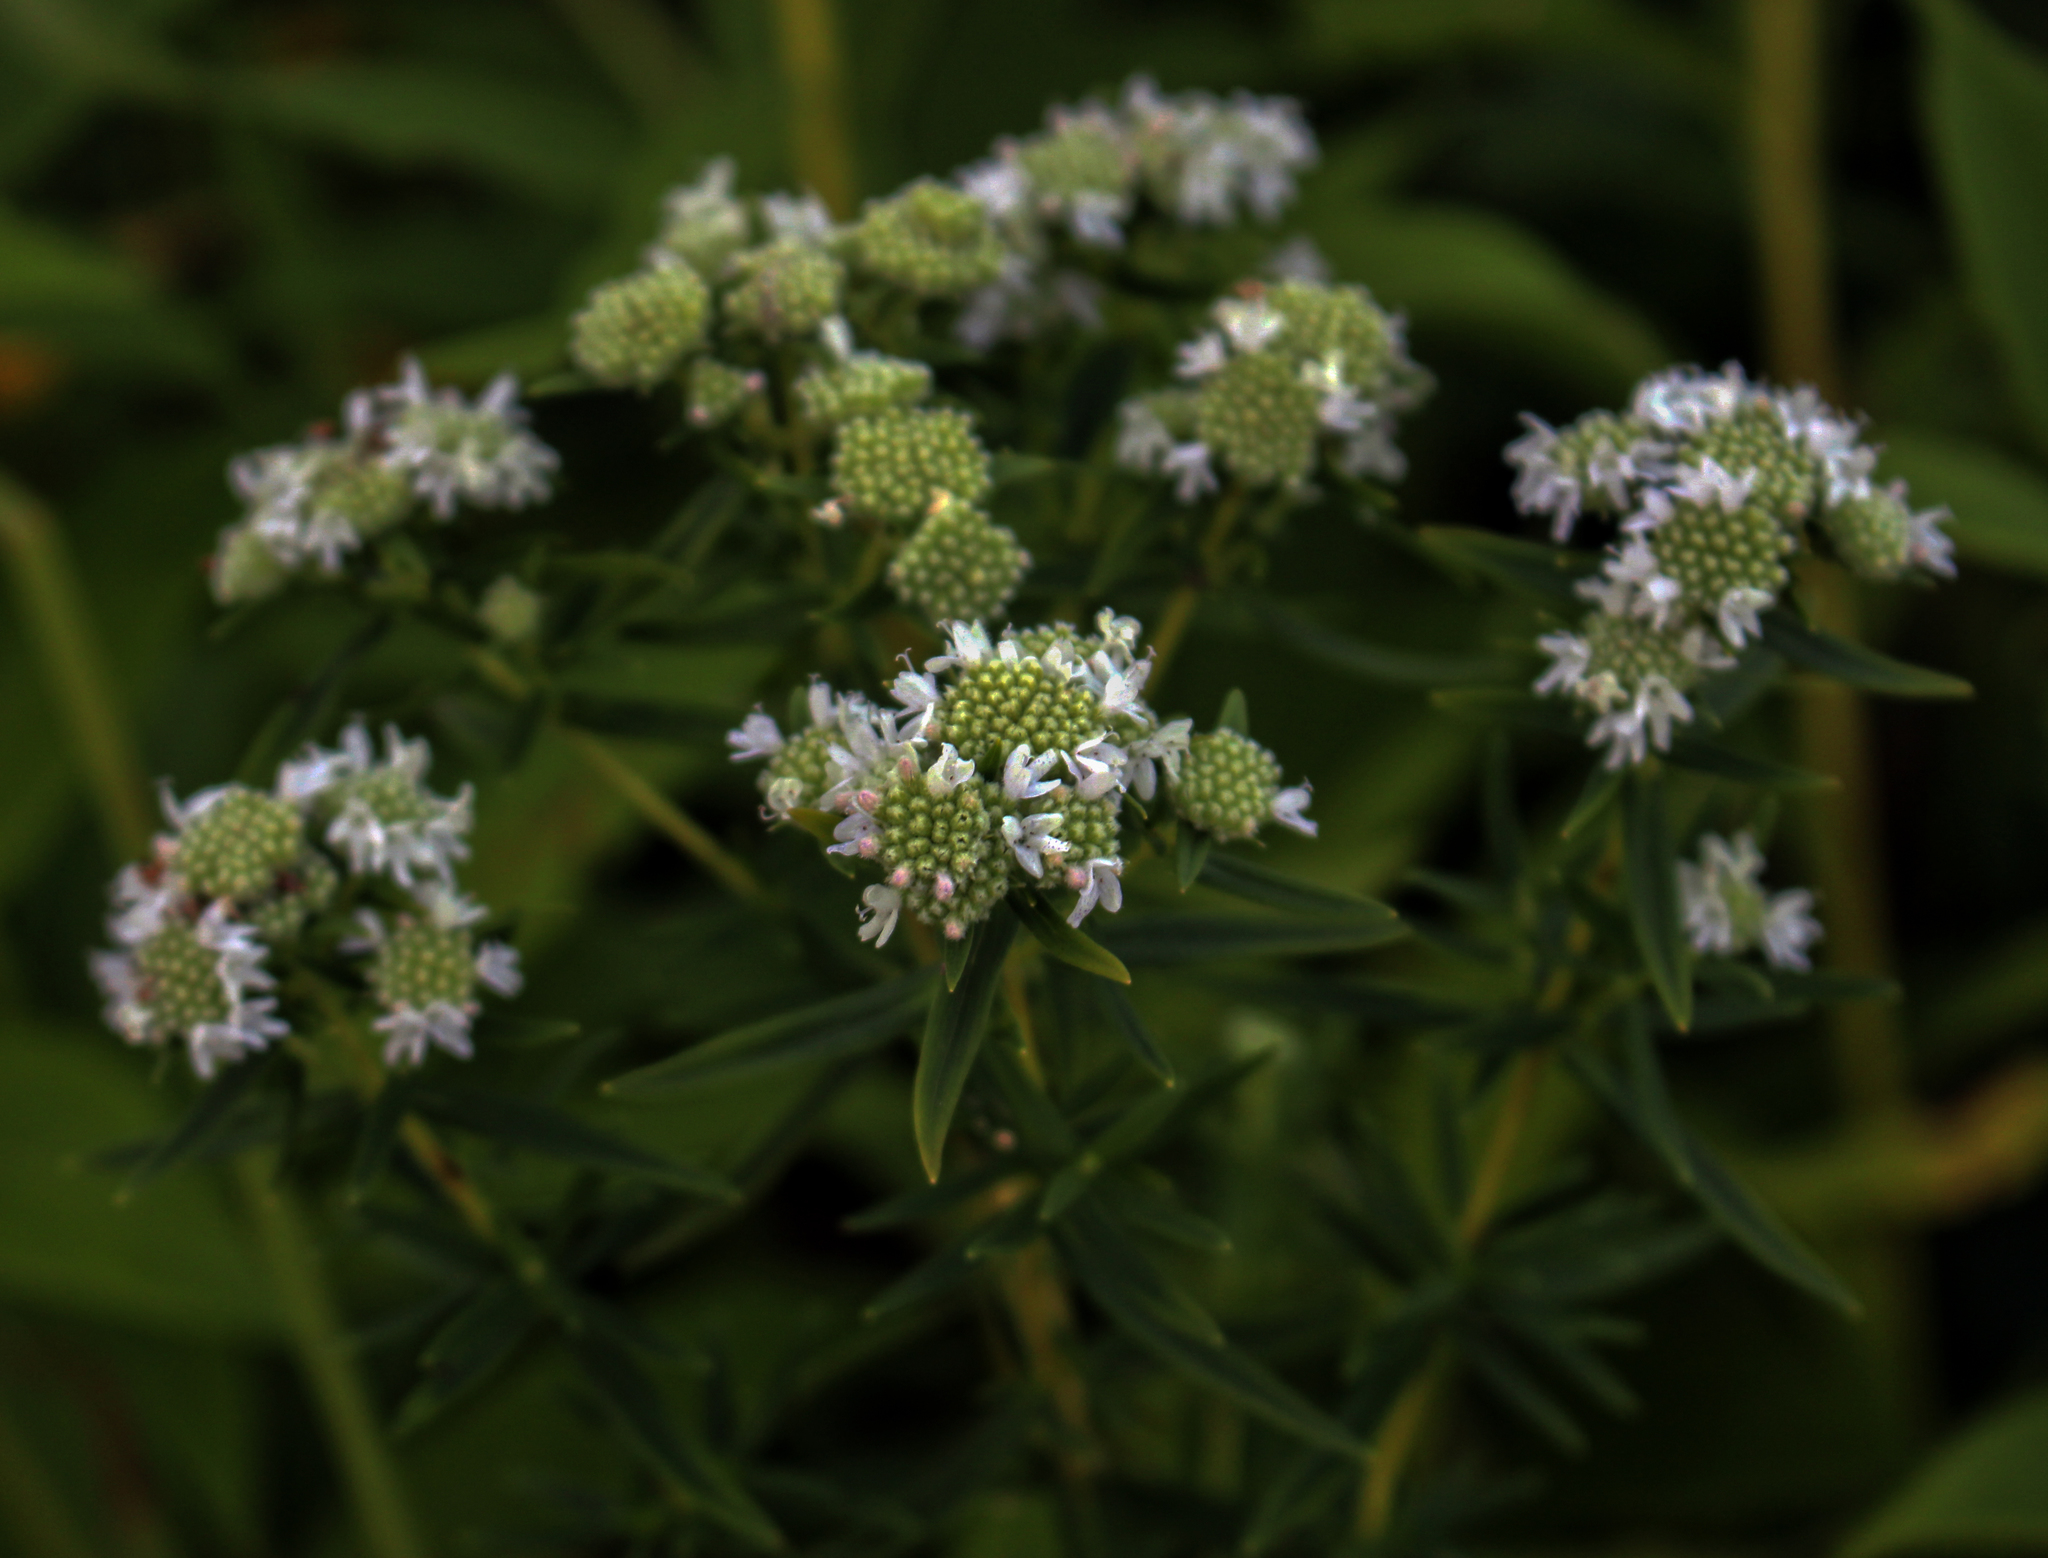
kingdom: Plantae
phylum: Tracheophyta
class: Magnoliopsida
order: Lamiales
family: Lamiaceae
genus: Pycnanthemum
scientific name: Pycnanthemum virginianum
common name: Virginia mountain-mint
